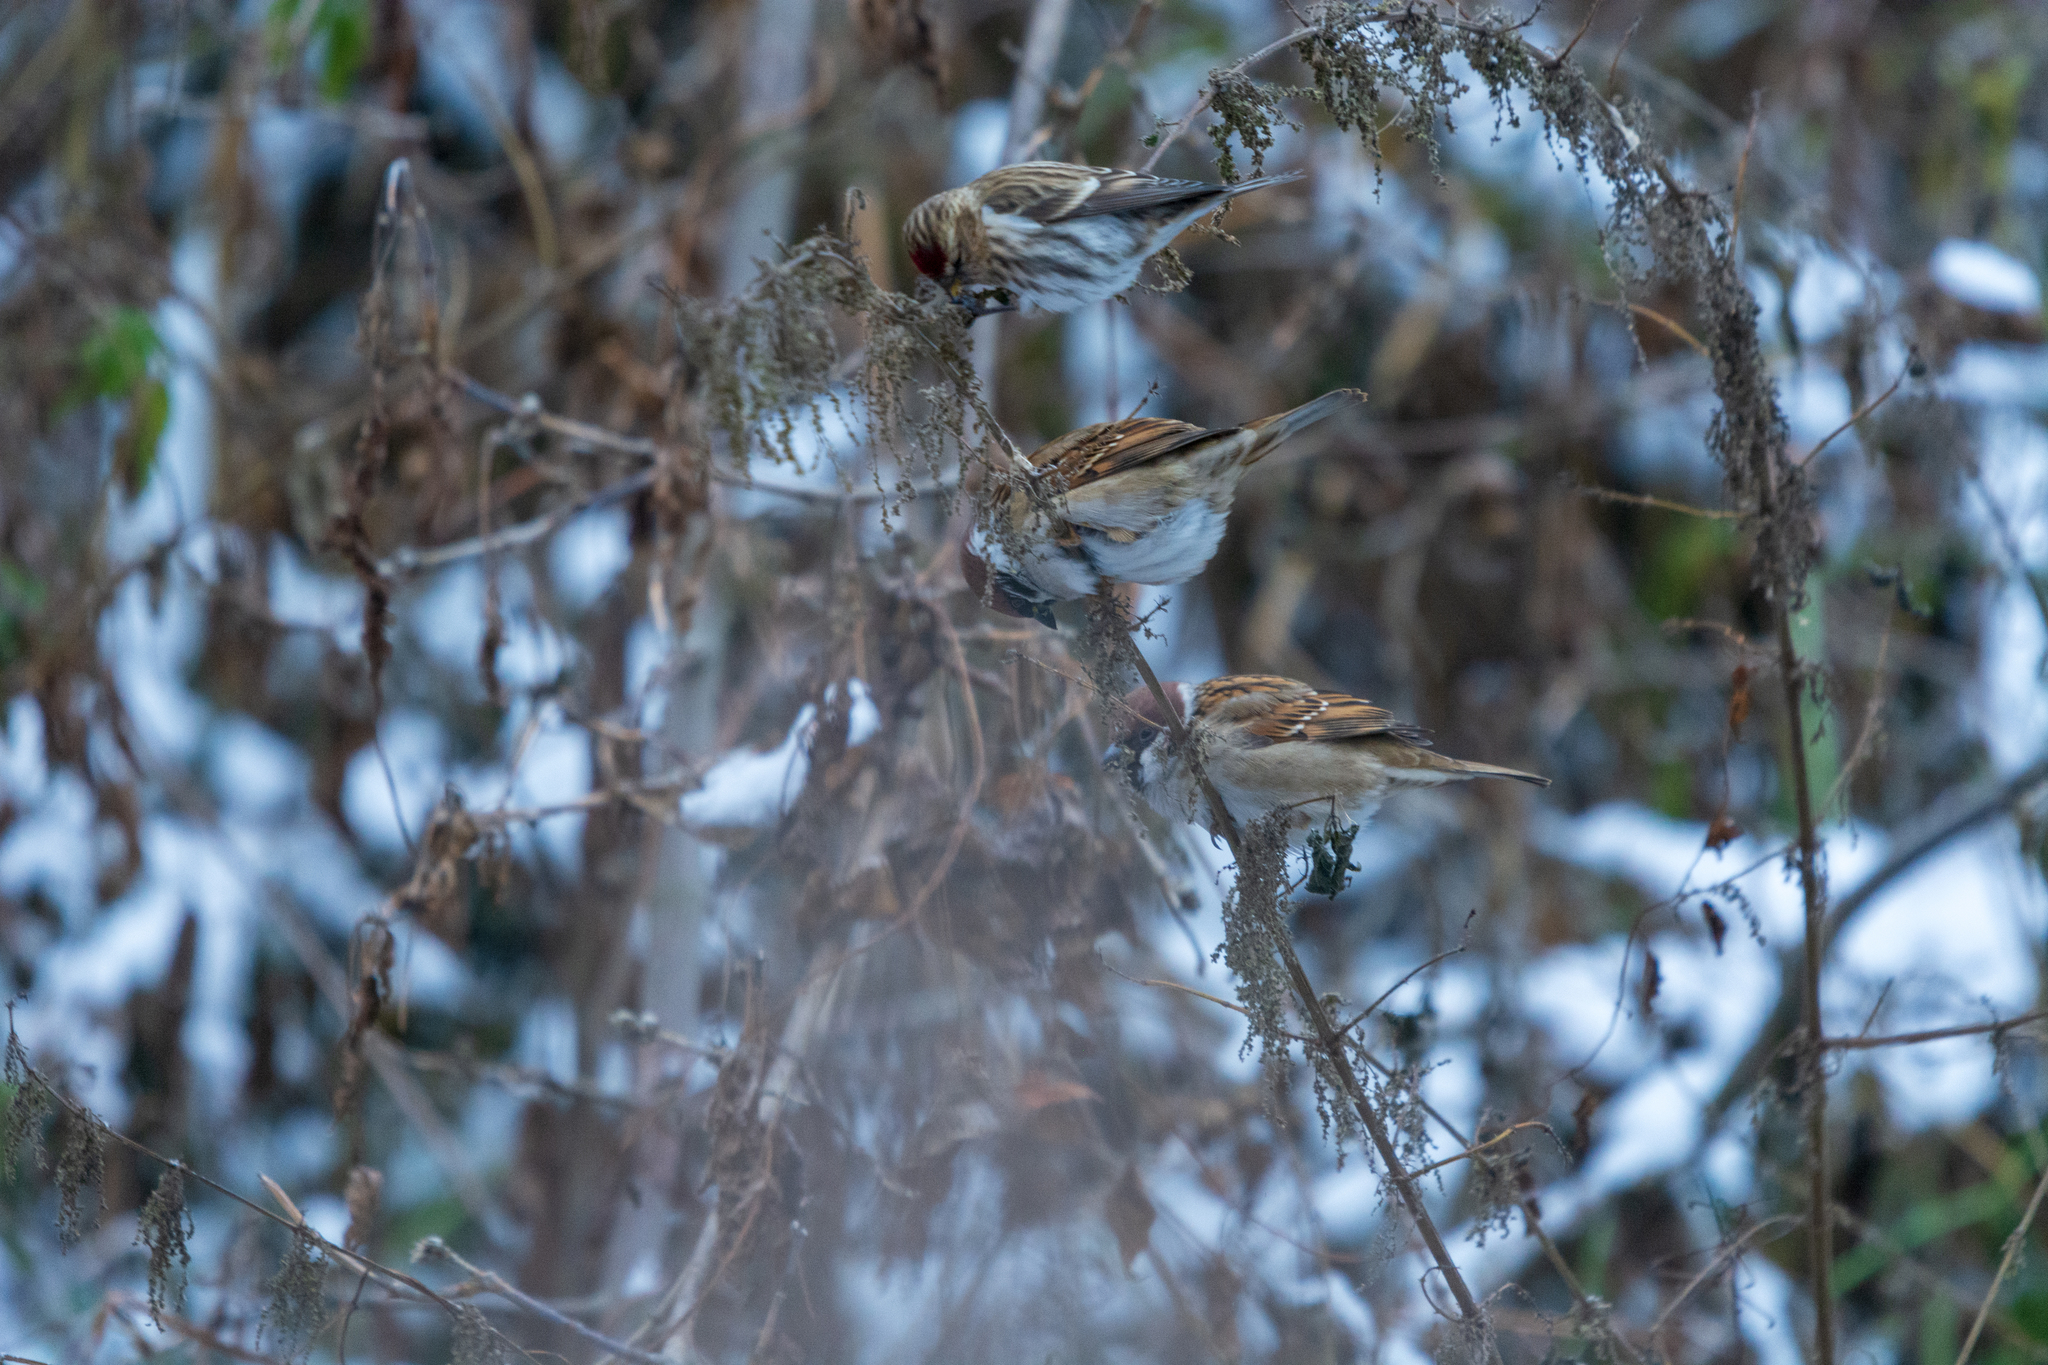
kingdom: Animalia
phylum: Chordata
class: Aves
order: Passeriformes
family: Passeridae
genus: Passer
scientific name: Passer montanus
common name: Eurasian tree sparrow
